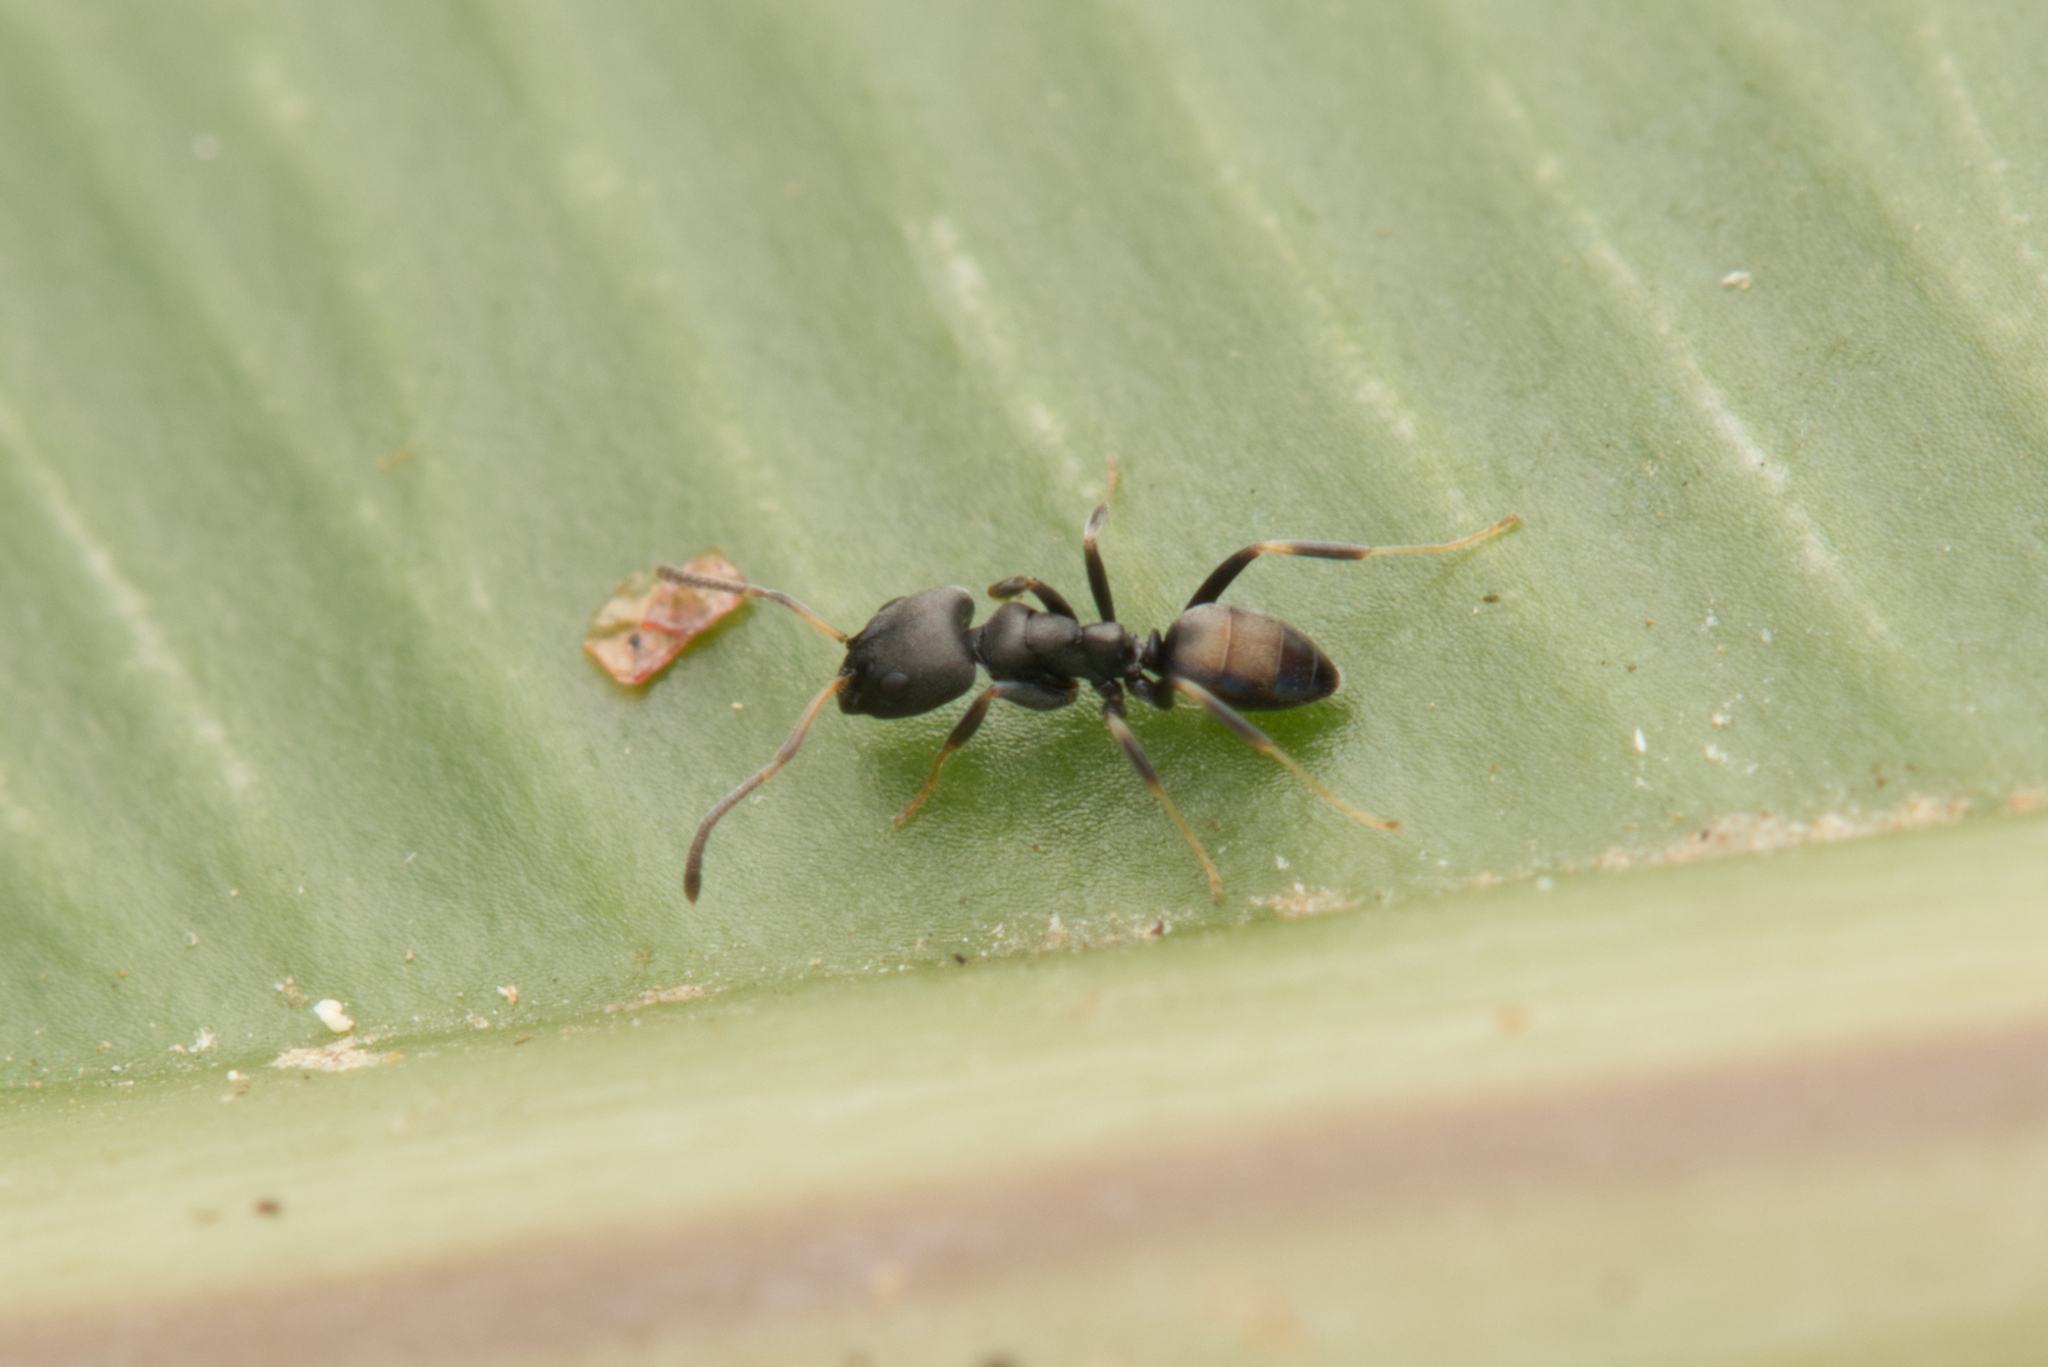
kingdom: Animalia
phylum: Arthropoda
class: Insecta
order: Hymenoptera
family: Formicidae
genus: Ochetellus
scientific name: Ochetellus punctatissimus
